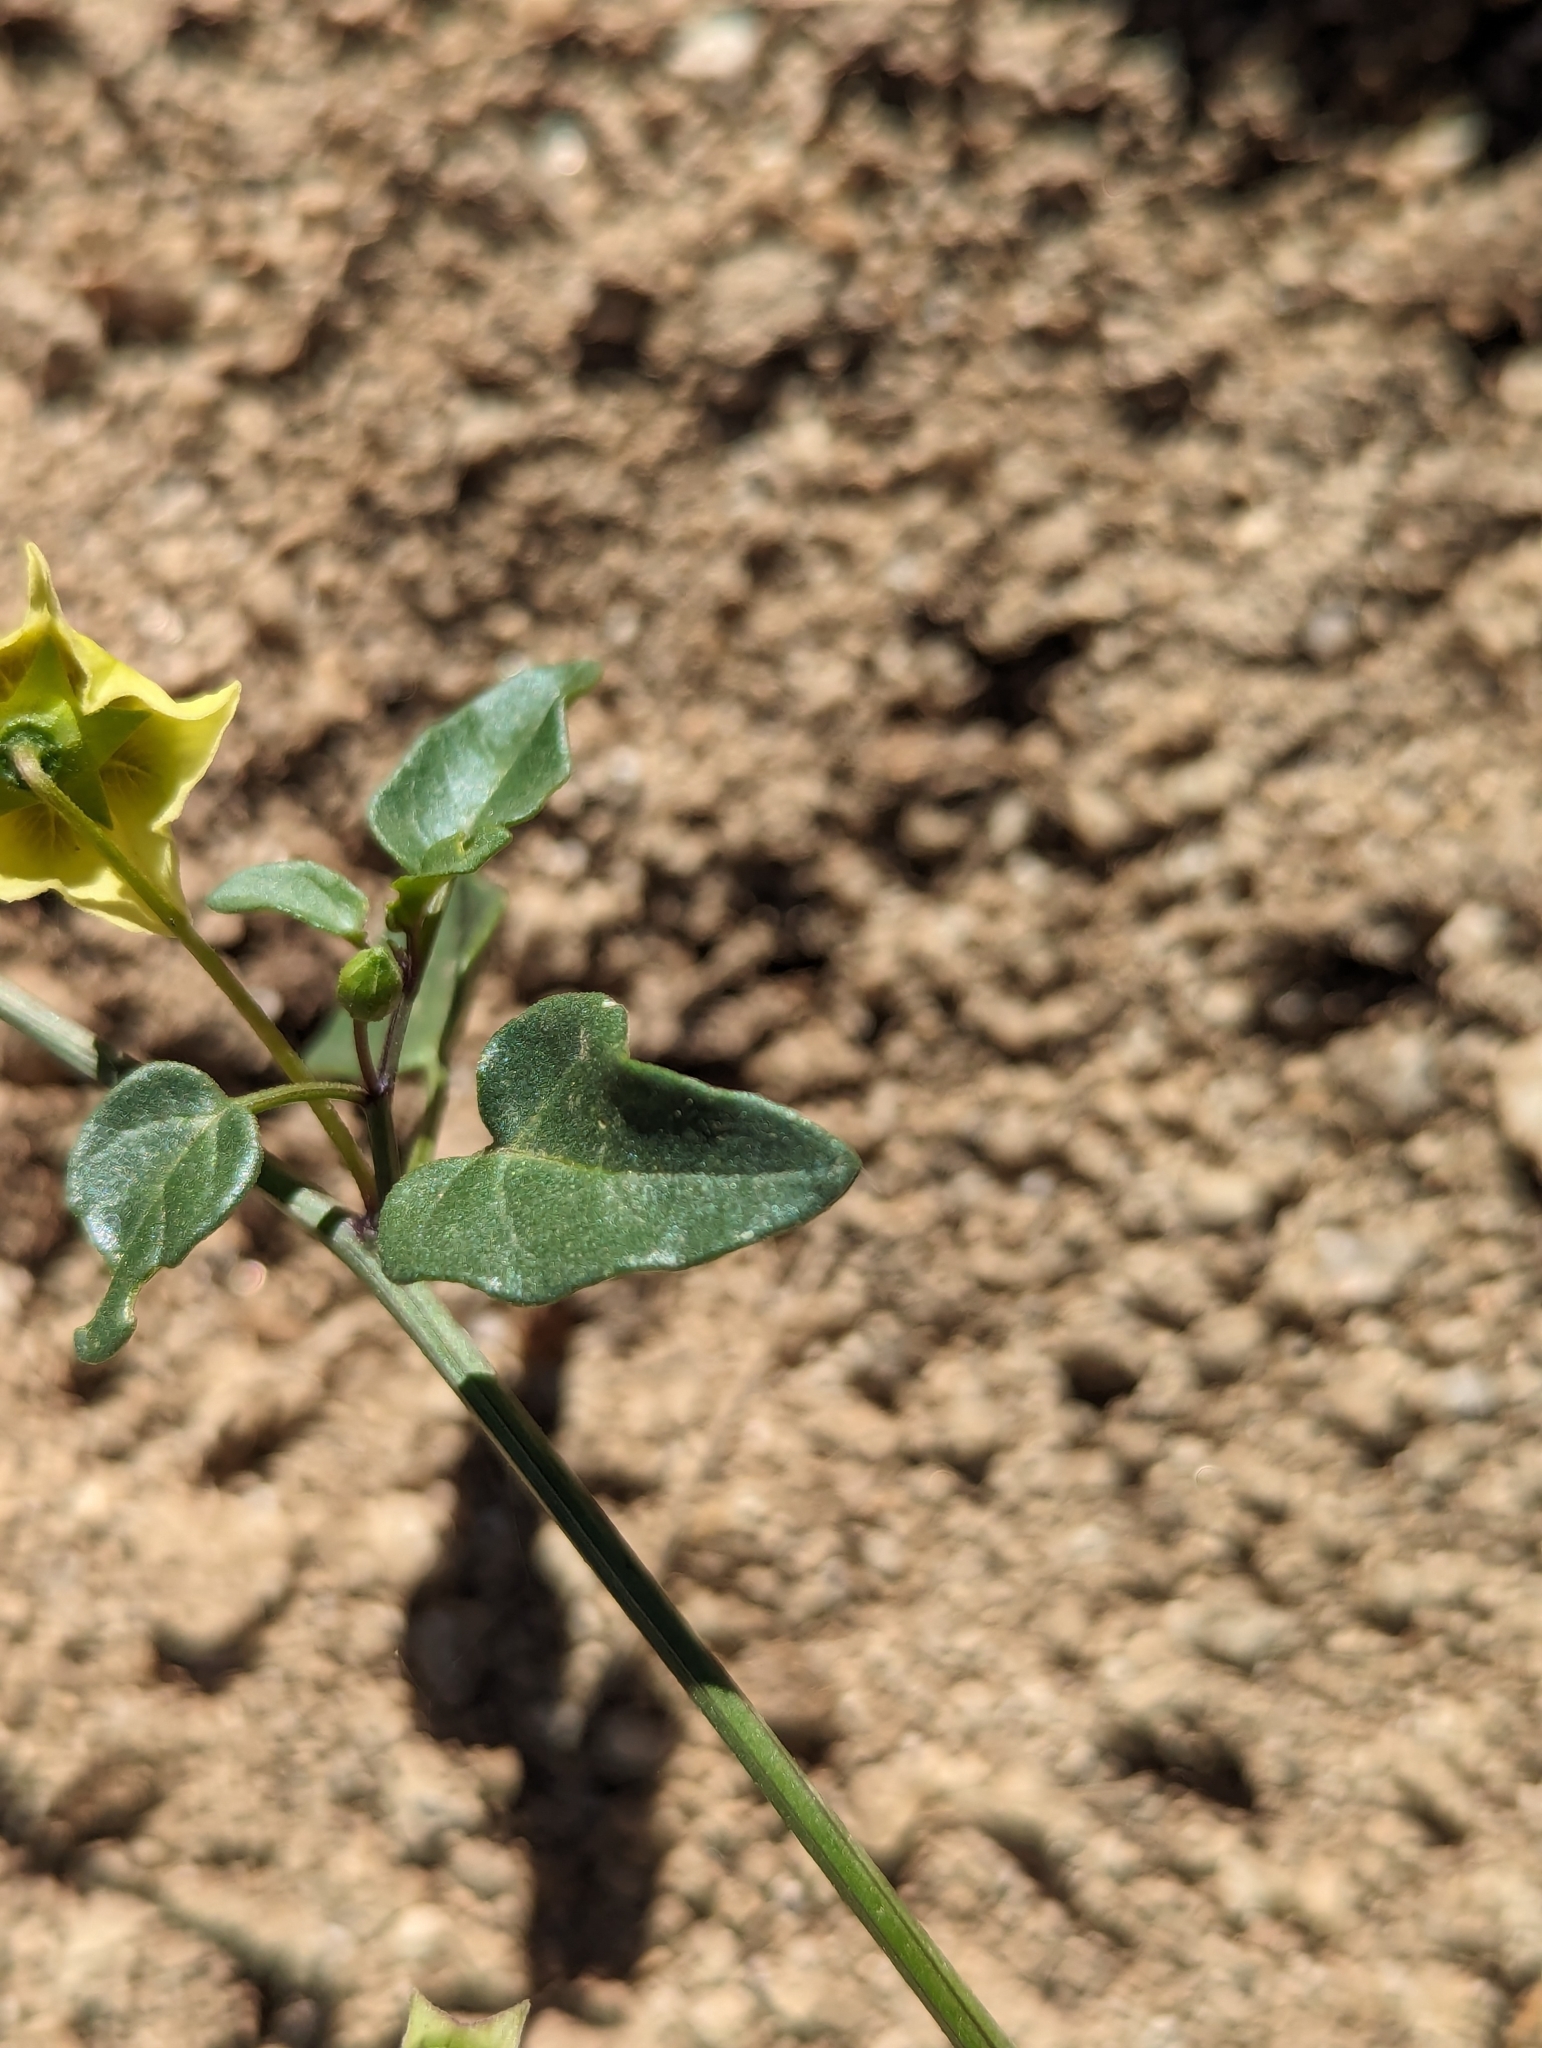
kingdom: Plantae
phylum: Tracheophyta
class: Magnoliopsida
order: Solanales
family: Solanaceae
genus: Physalis
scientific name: Physalis glabra
